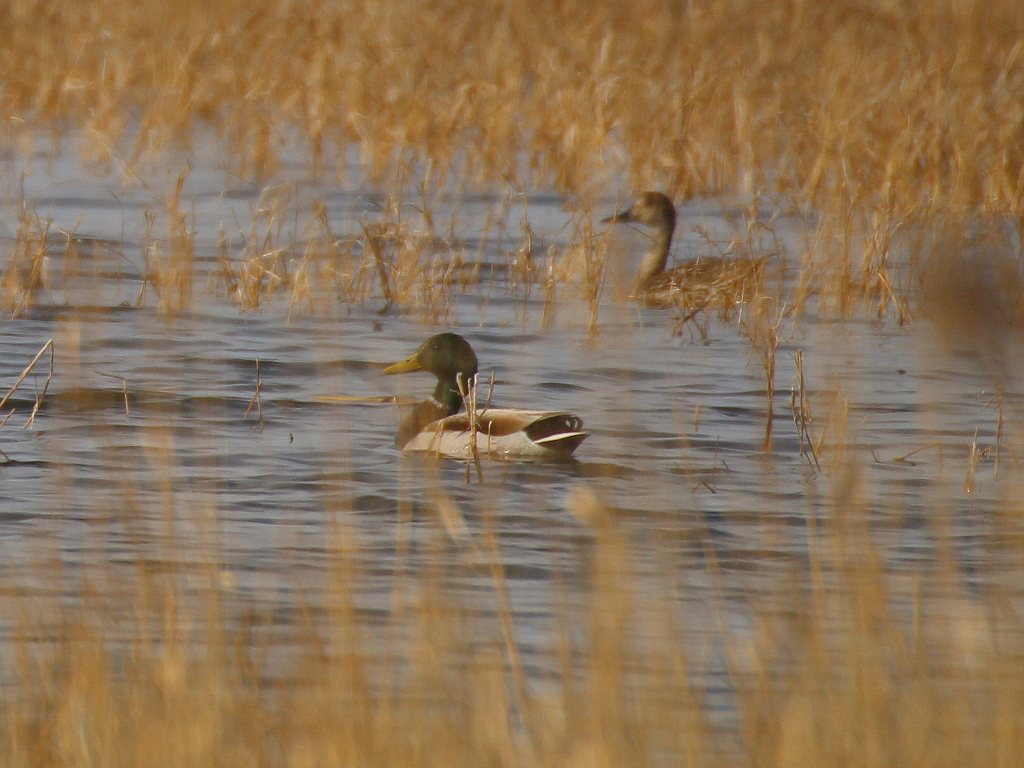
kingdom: Animalia
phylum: Chordata
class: Aves
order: Anseriformes
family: Anatidae
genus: Anas
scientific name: Anas platyrhynchos
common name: Mallard
